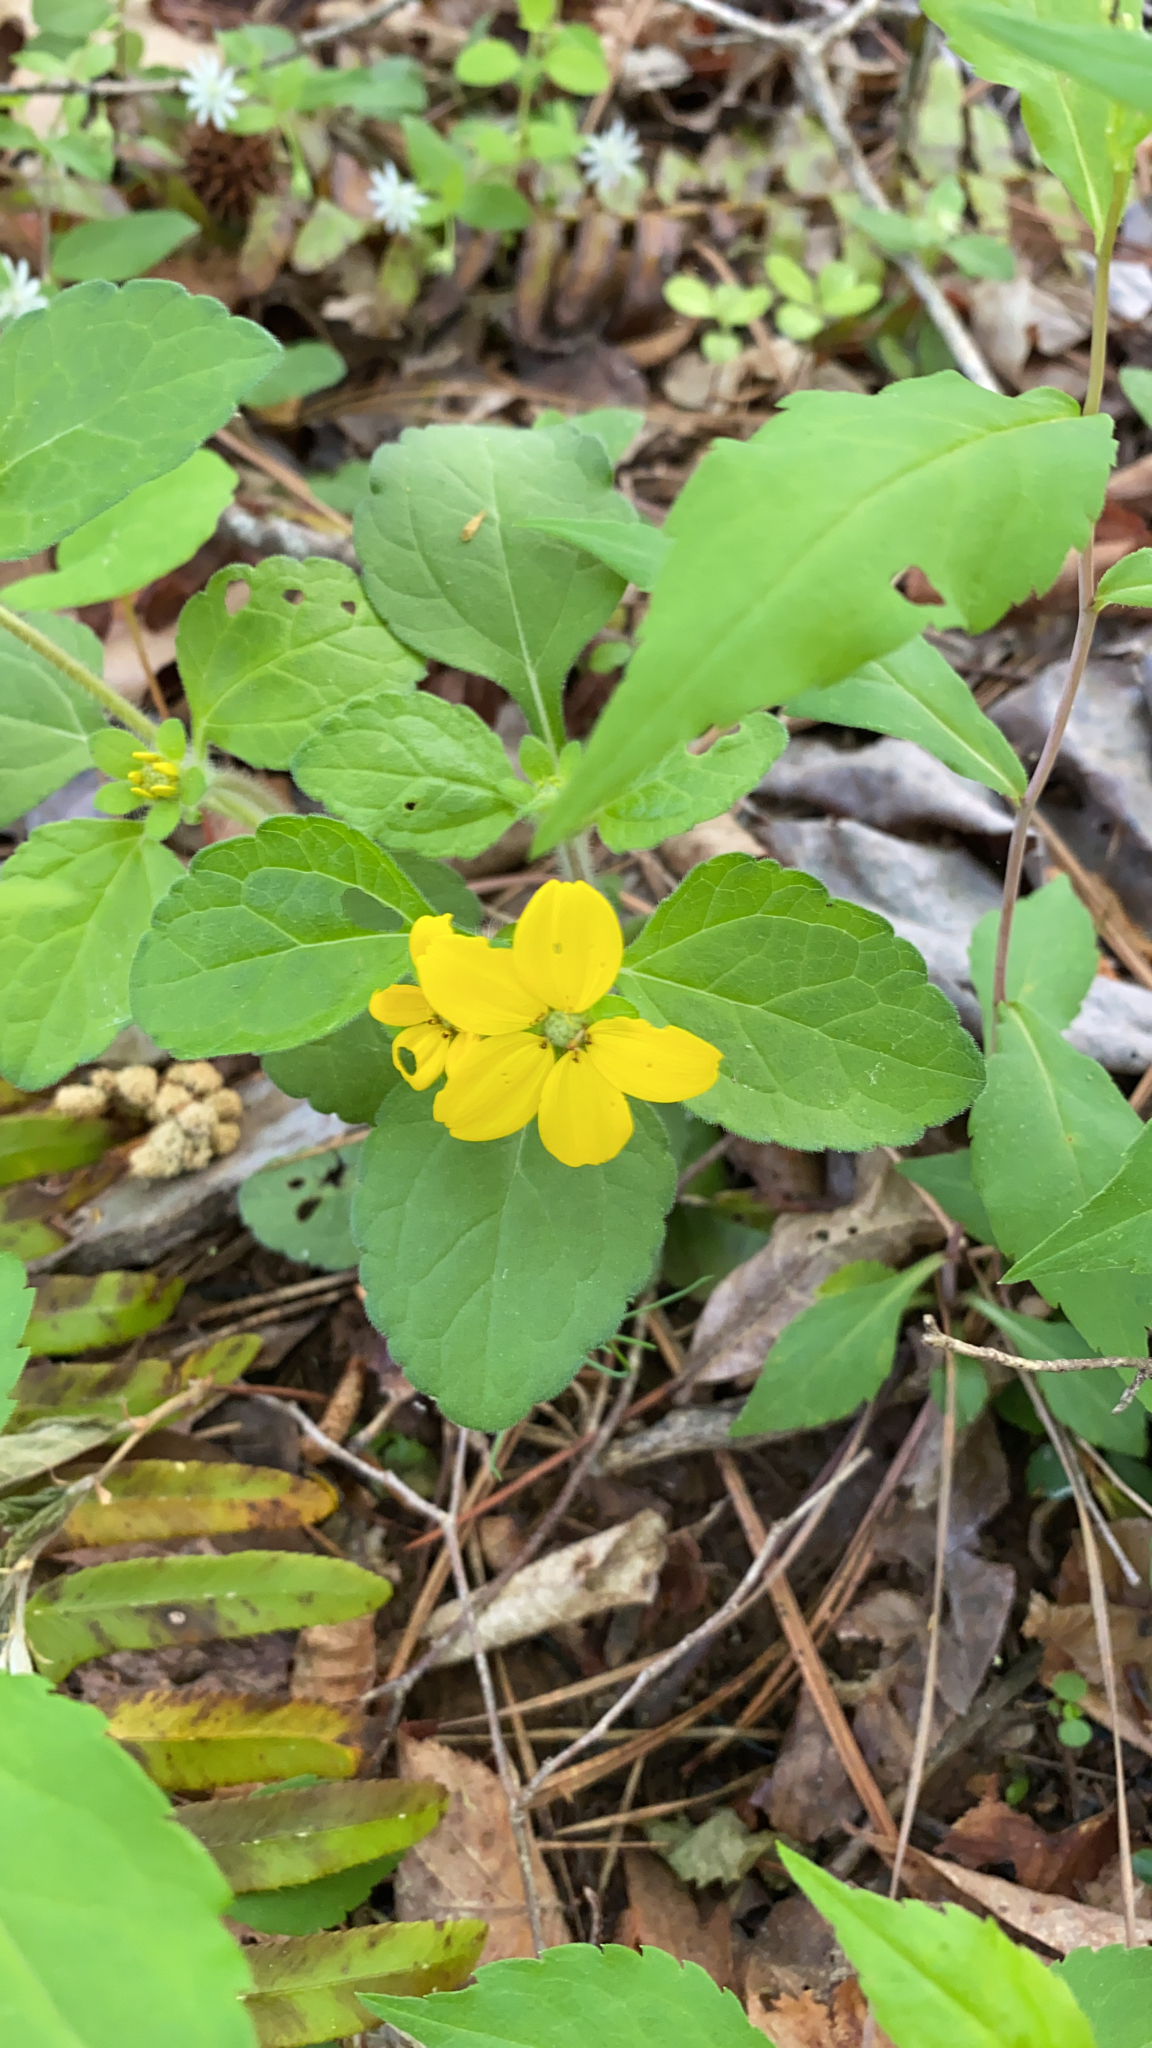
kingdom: Plantae
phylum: Tracheophyta
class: Magnoliopsida
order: Asterales
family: Asteraceae
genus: Chrysogonum
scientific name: Chrysogonum virginianum
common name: Golden-knee
